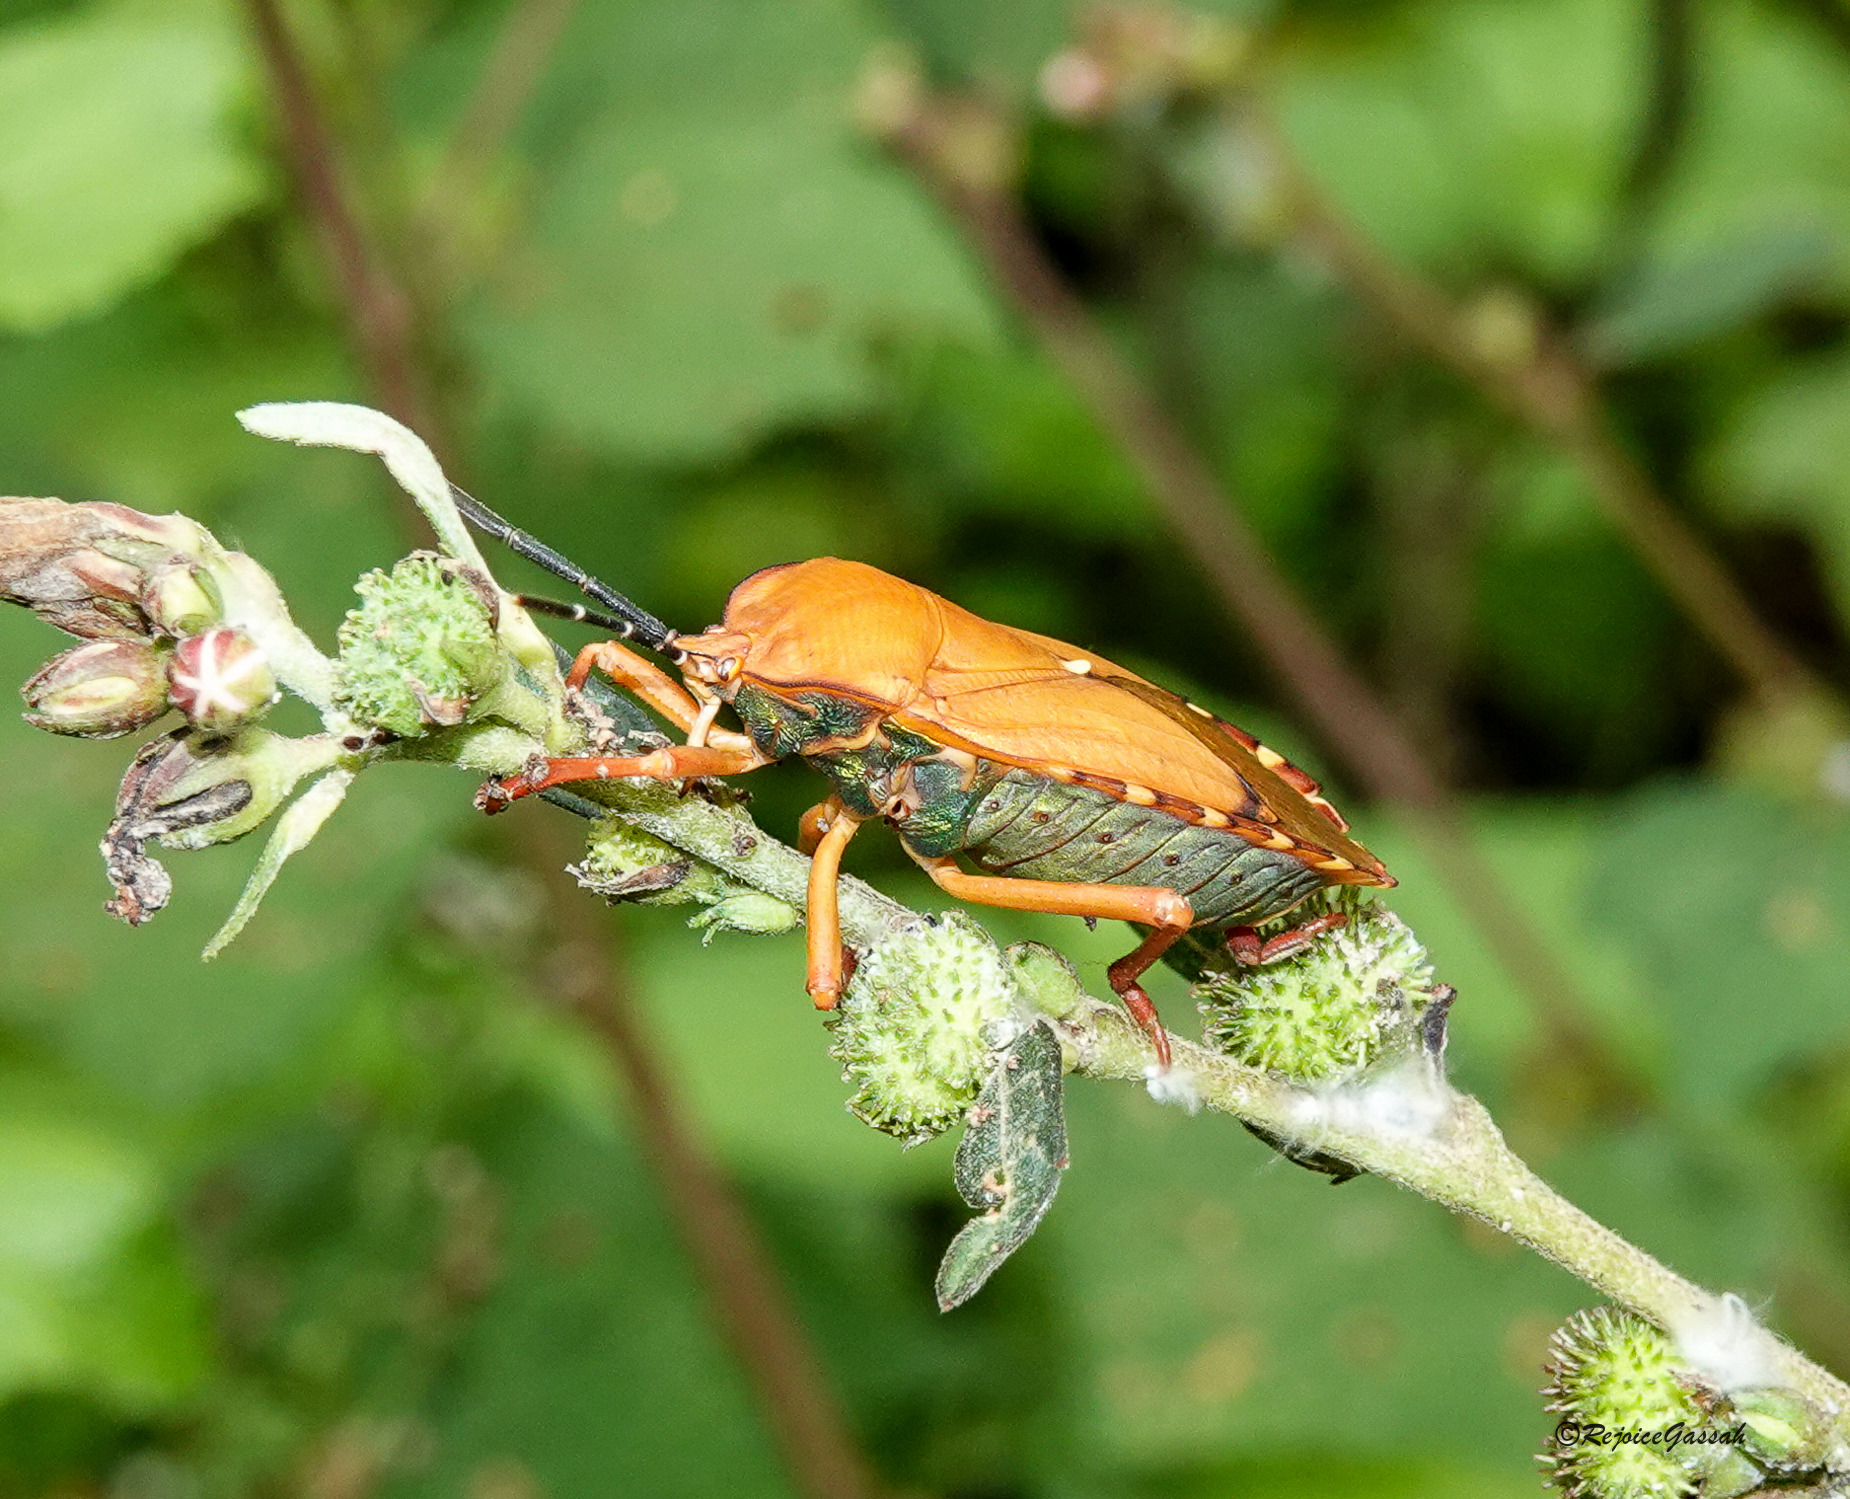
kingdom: Animalia
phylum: Arthropoda
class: Insecta
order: Hemiptera
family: Tessaratomidae
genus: Pycanum
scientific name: Pycanum ochraceum
